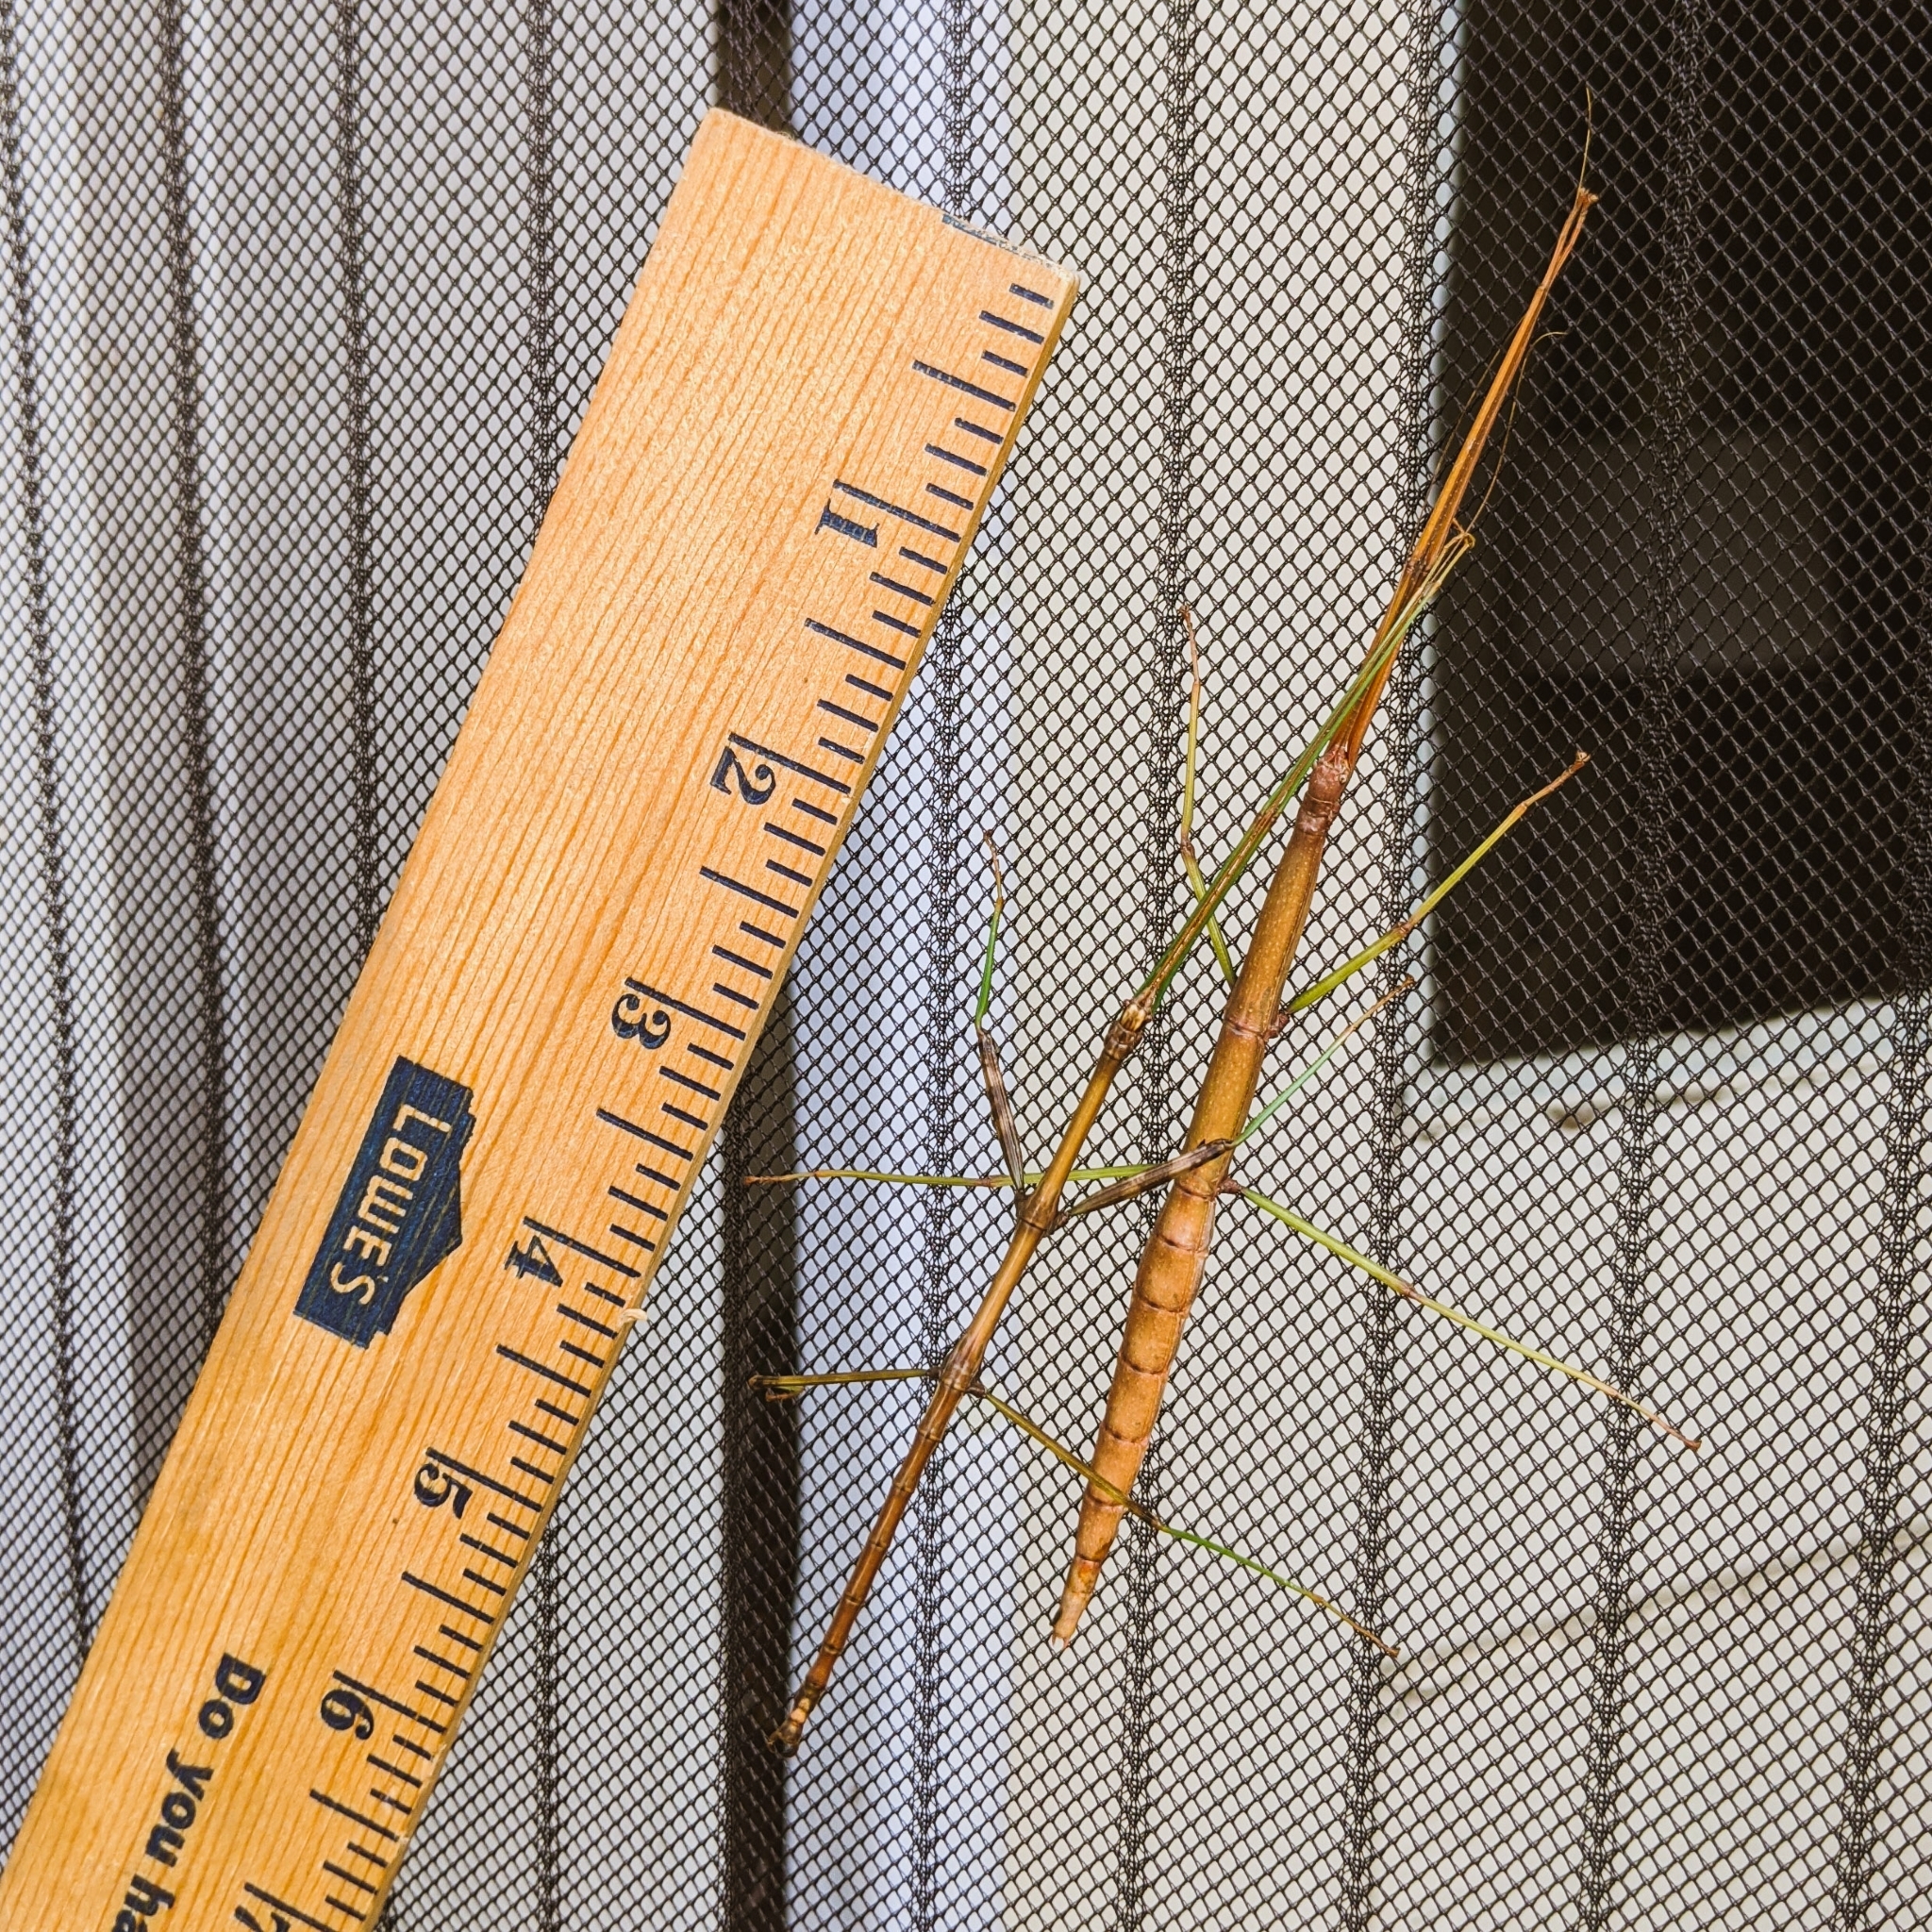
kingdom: Animalia
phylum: Arthropoda
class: Insecta
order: Phasmida
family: Diapheromeridae
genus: Diapheromera
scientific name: Diapheromera femorata
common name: Common american walkingstick
